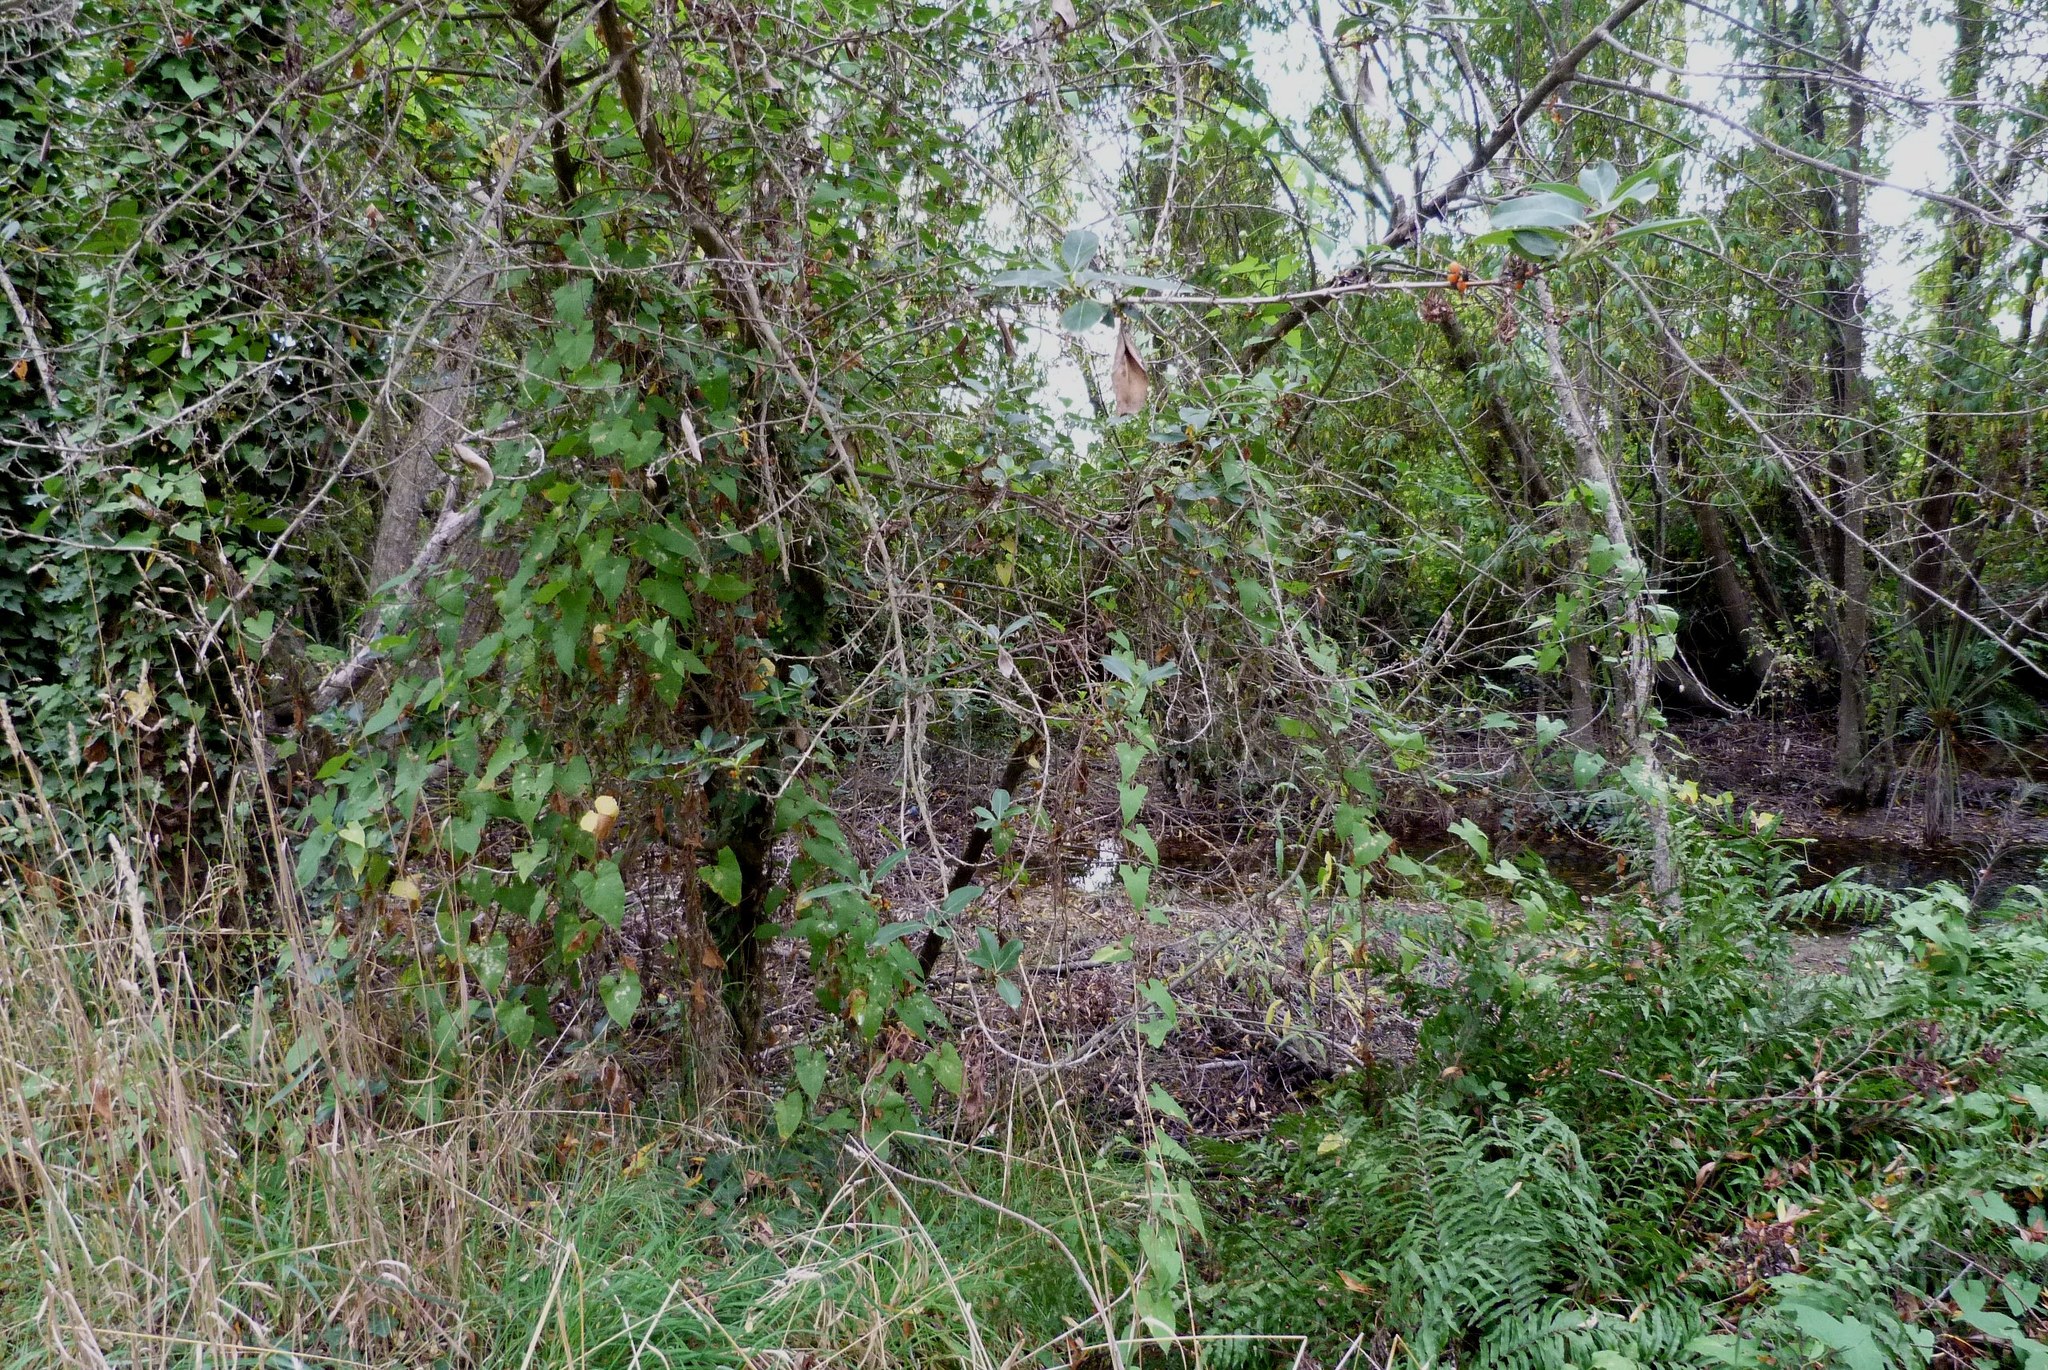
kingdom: Plantae
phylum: Tracheophyta
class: Magnoliopsida
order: Solanales
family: Convolvulaceae
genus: Calystegia
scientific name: Calystegia silvatica
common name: Large bindweed
